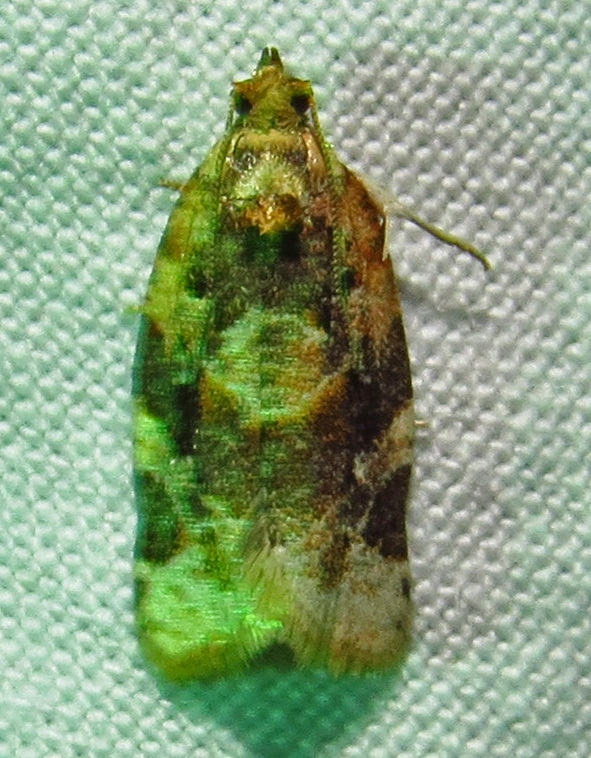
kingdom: Animalia
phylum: Arthropoda
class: Insecta
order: Lepidoptera
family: Tortricidae
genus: Argyrotaenia
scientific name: Argyrotaenia velutinana
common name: Red-banded leafroller moth
